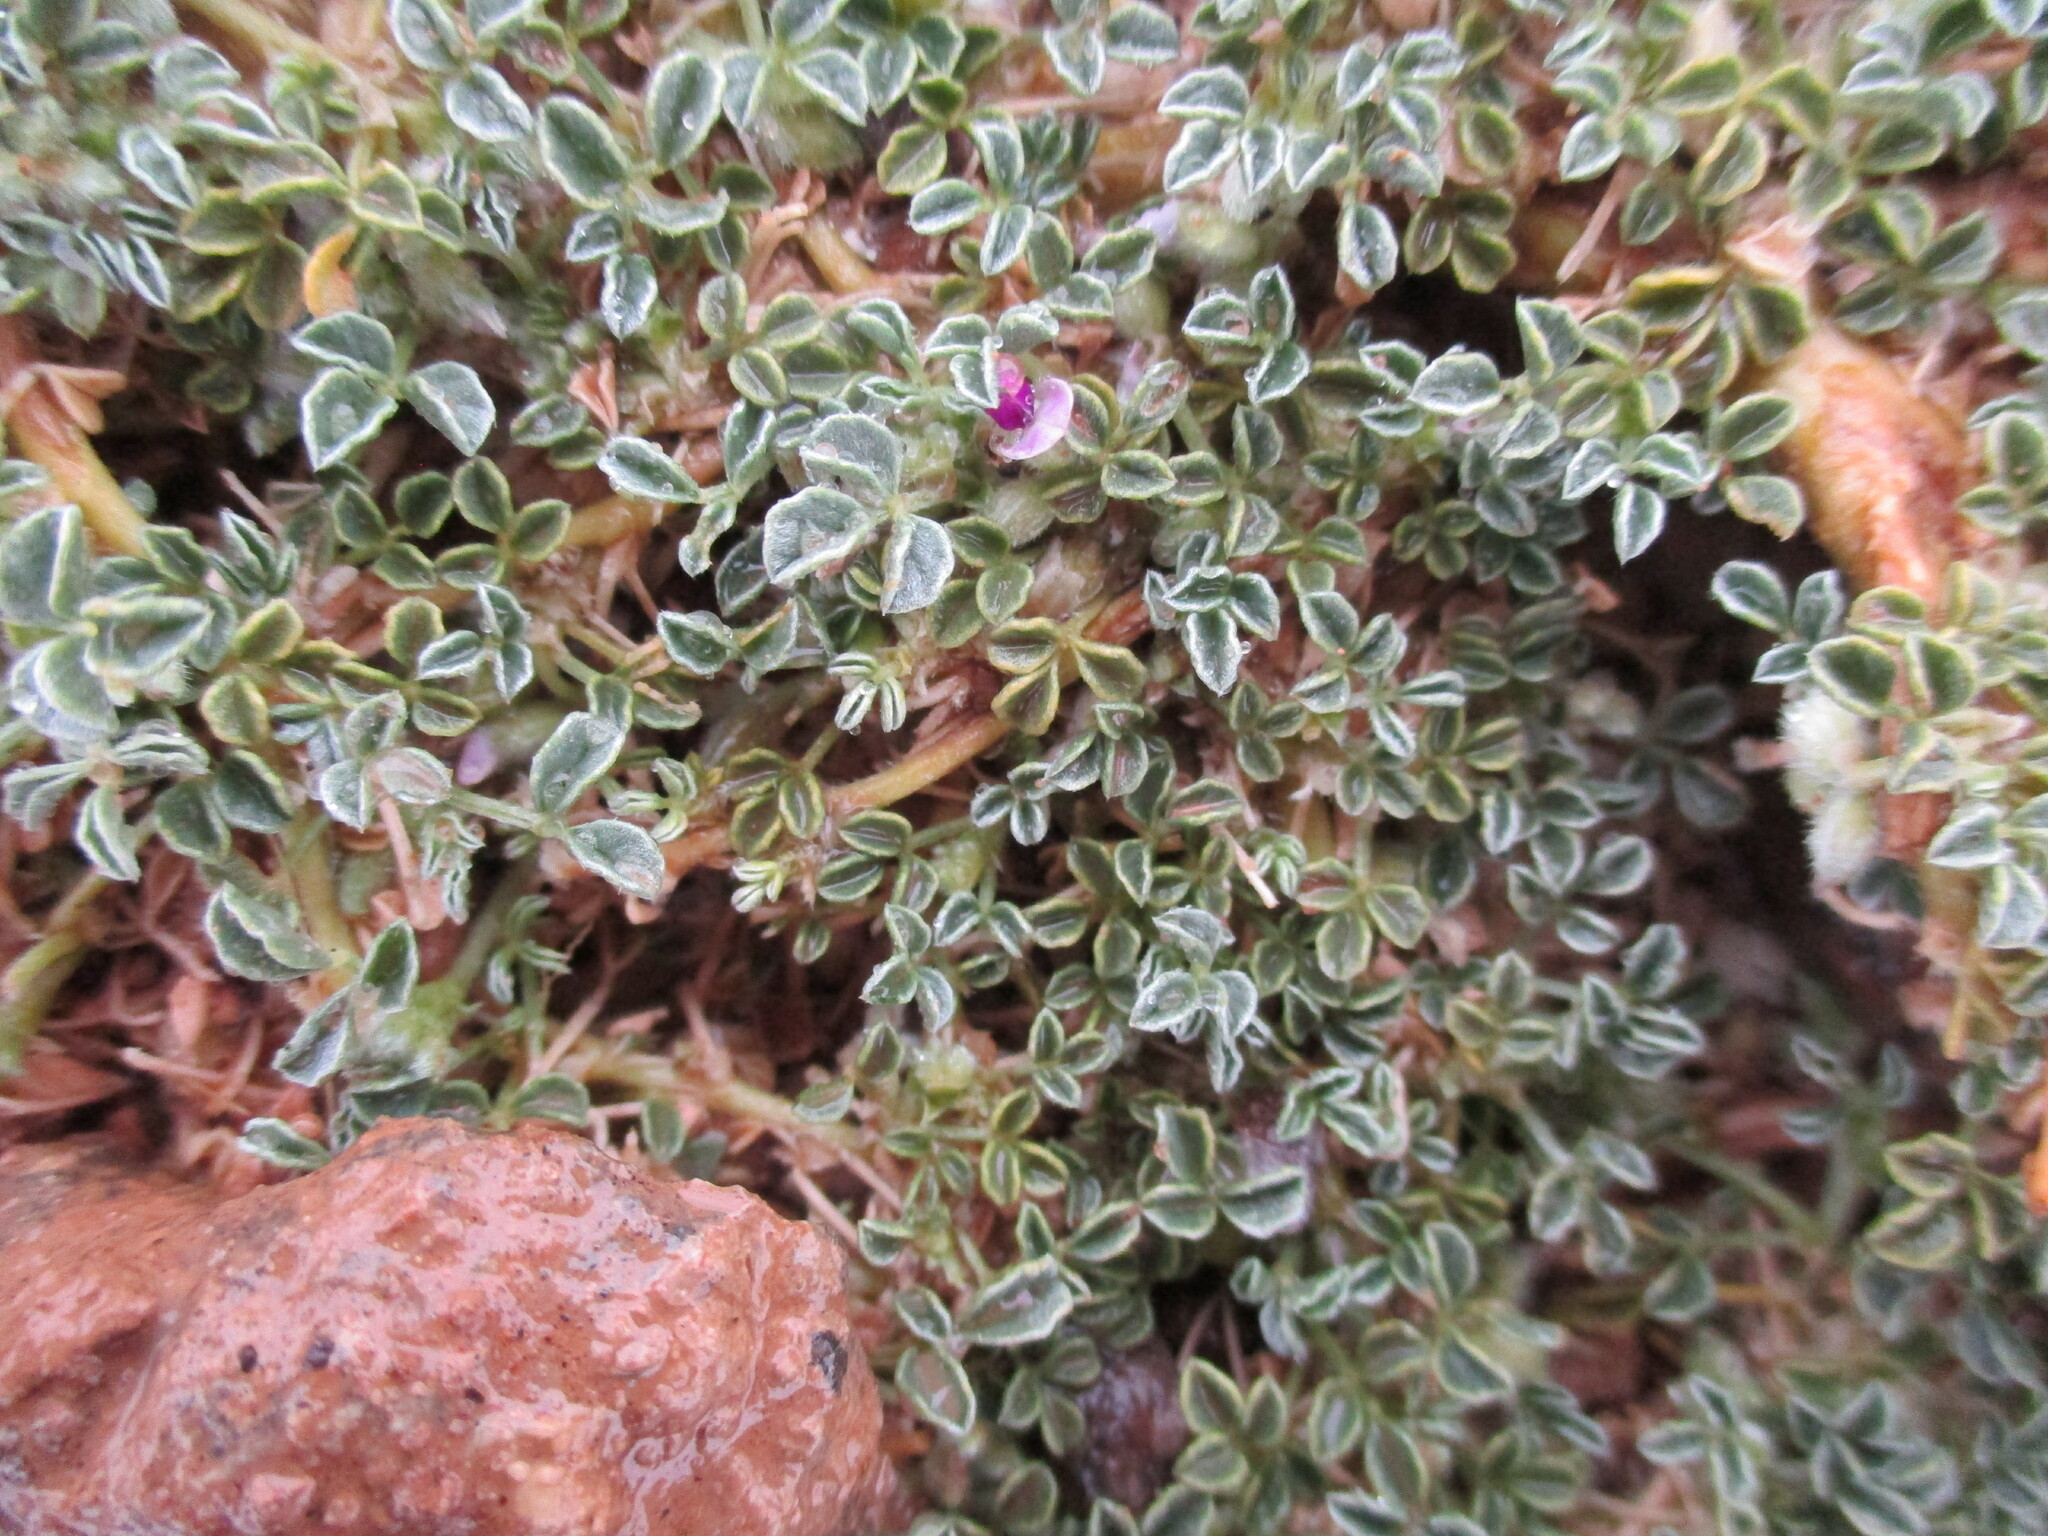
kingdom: Plantae
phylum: Tracheophyta
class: Magnoliopsida
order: Fabales
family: Fabaceae
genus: Cullen
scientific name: Cullen tomentosum
